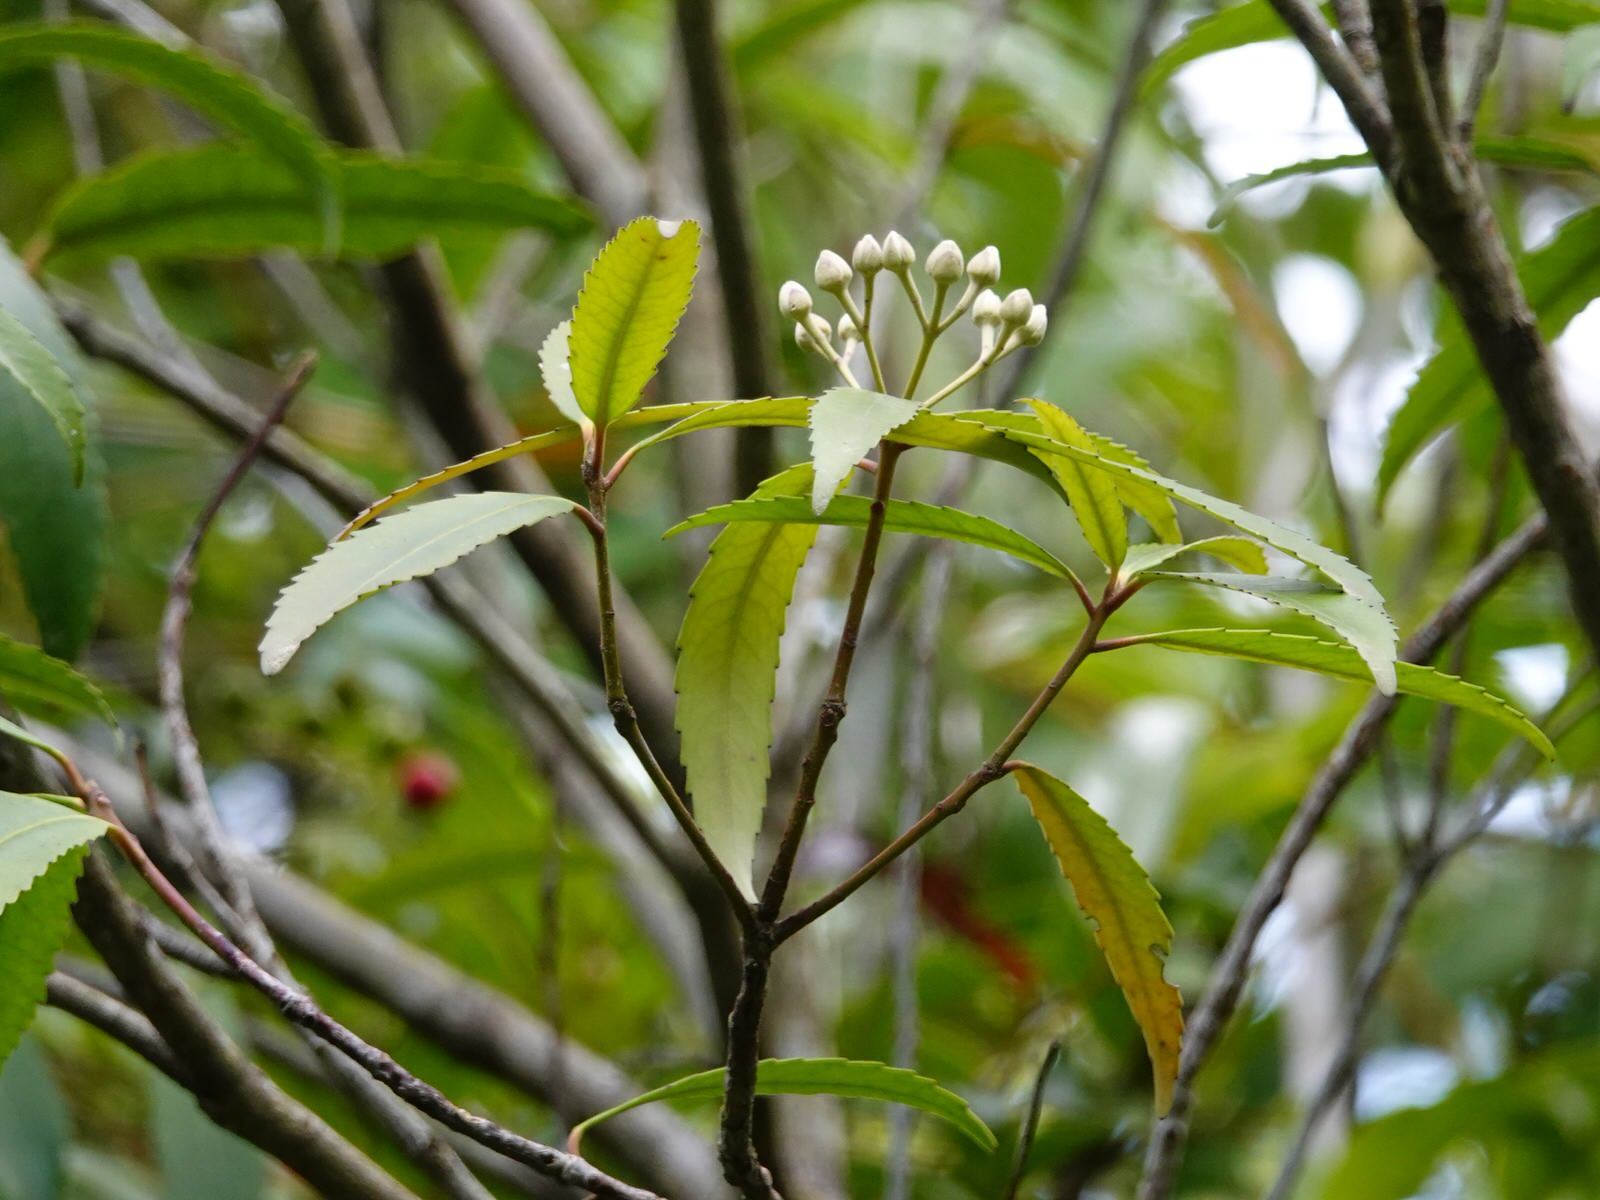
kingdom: Plantae
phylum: Tracheophyta
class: Magnoliopsida
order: Crossosomatales
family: Ixerbaceae
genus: Ixerba
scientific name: Ixerba brexioides
